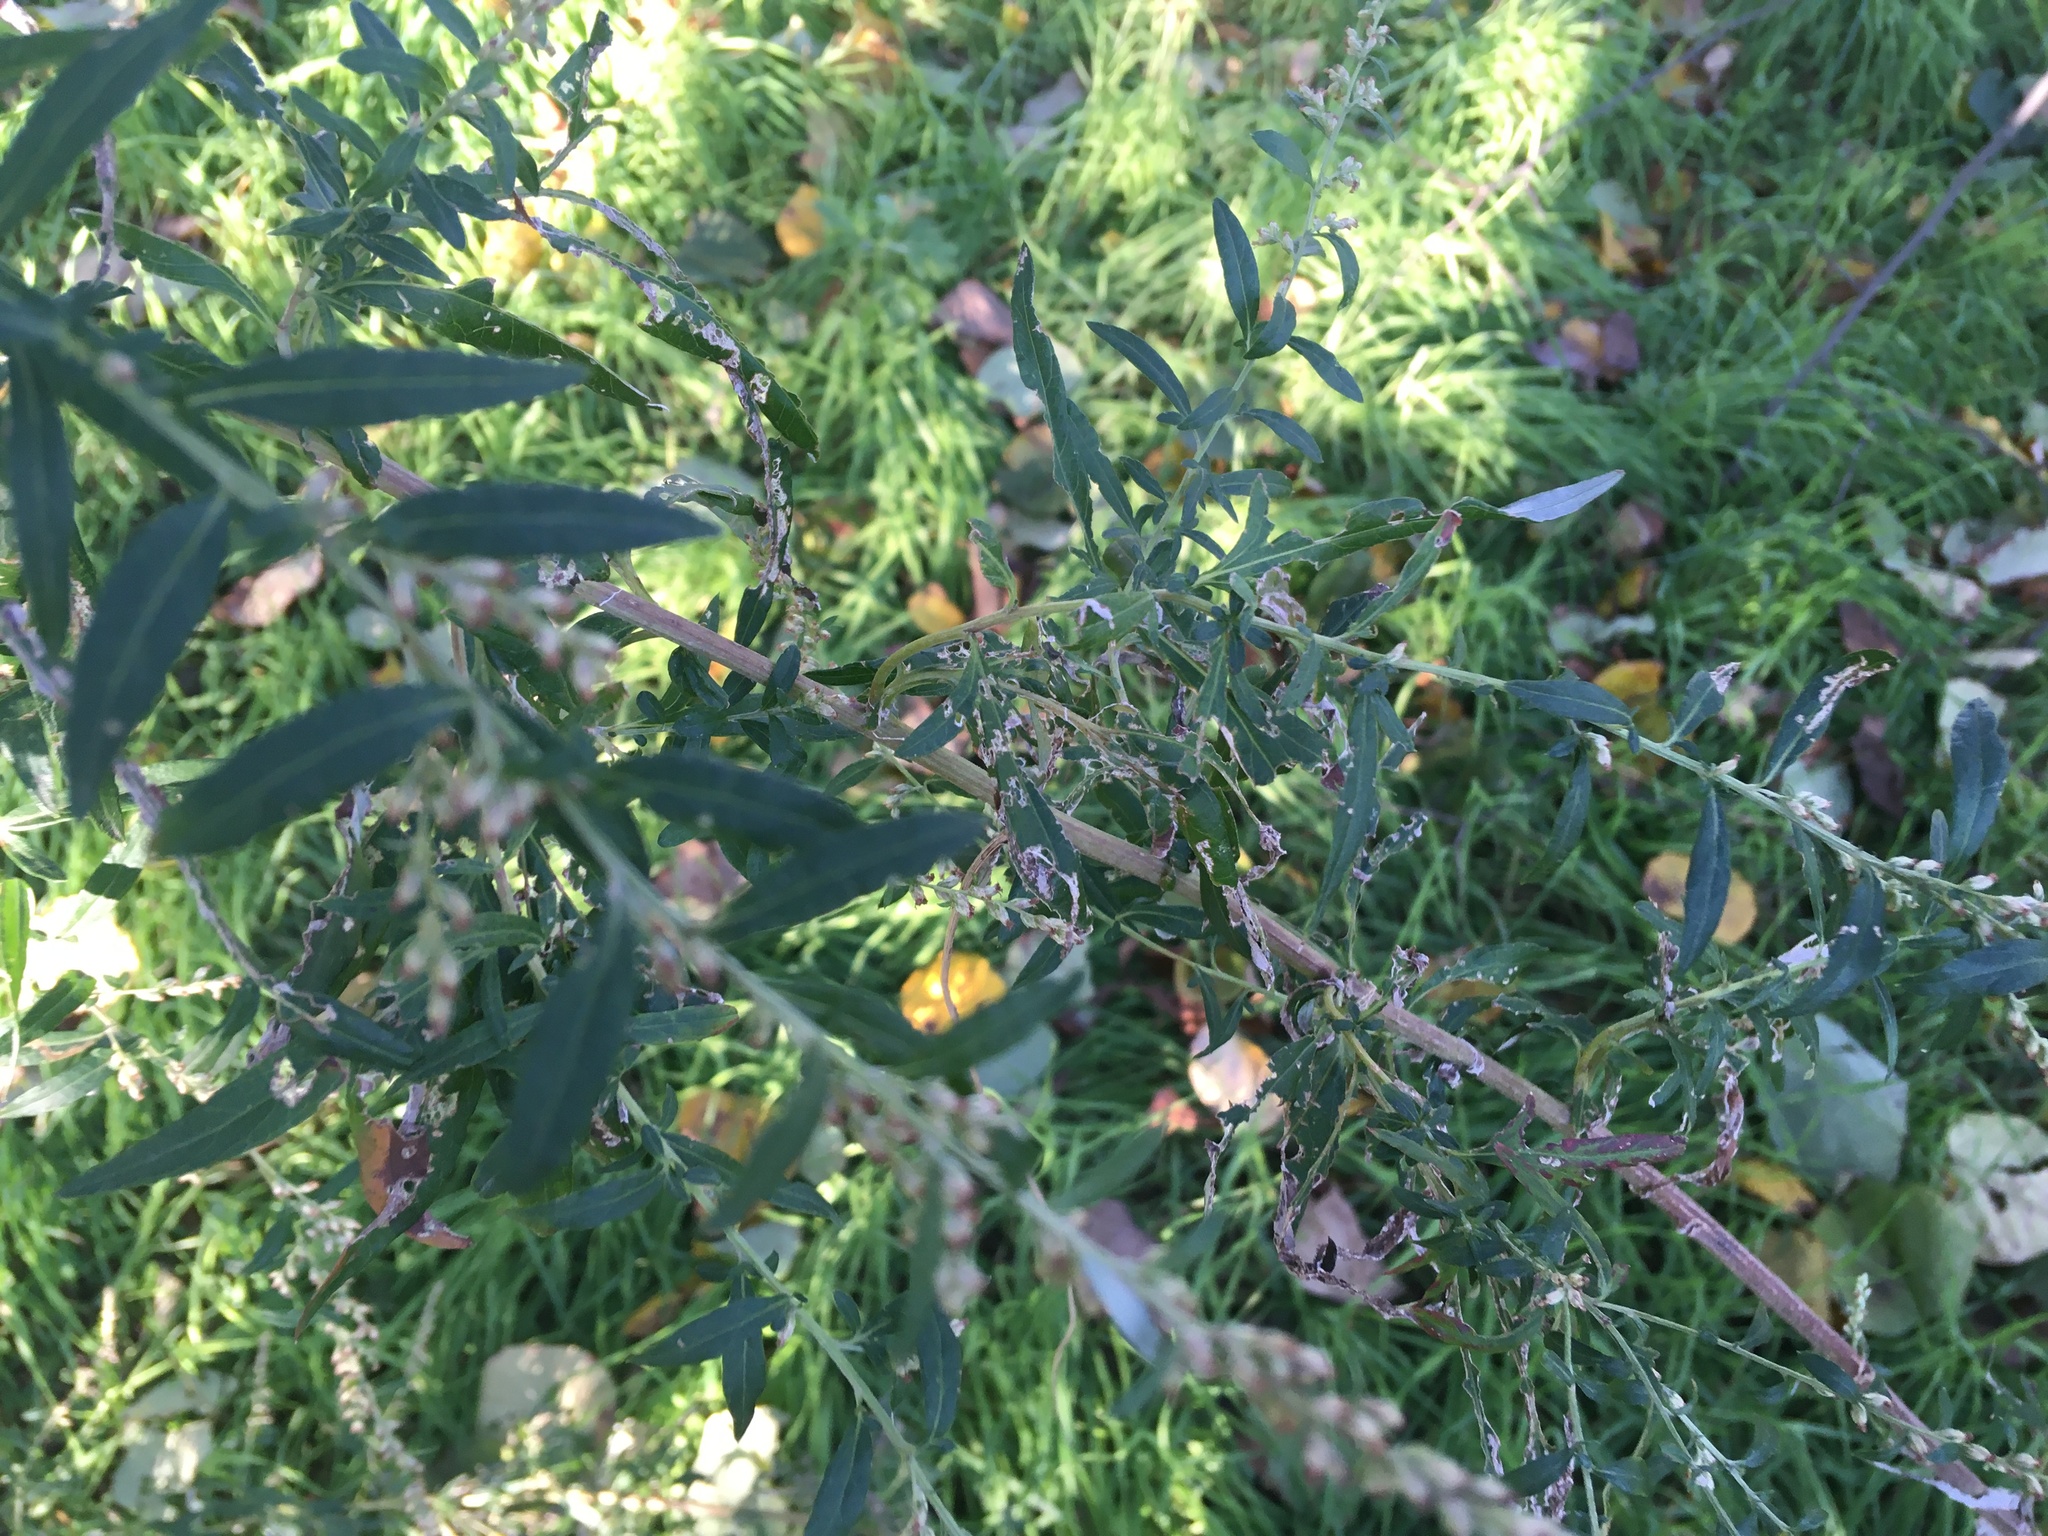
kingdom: Plantae
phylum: Tracheophyta
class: Magnoliopsida
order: Asterales
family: Asteraceae
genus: Artemisia
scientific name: Artemisia vulgaris
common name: Mugwort
